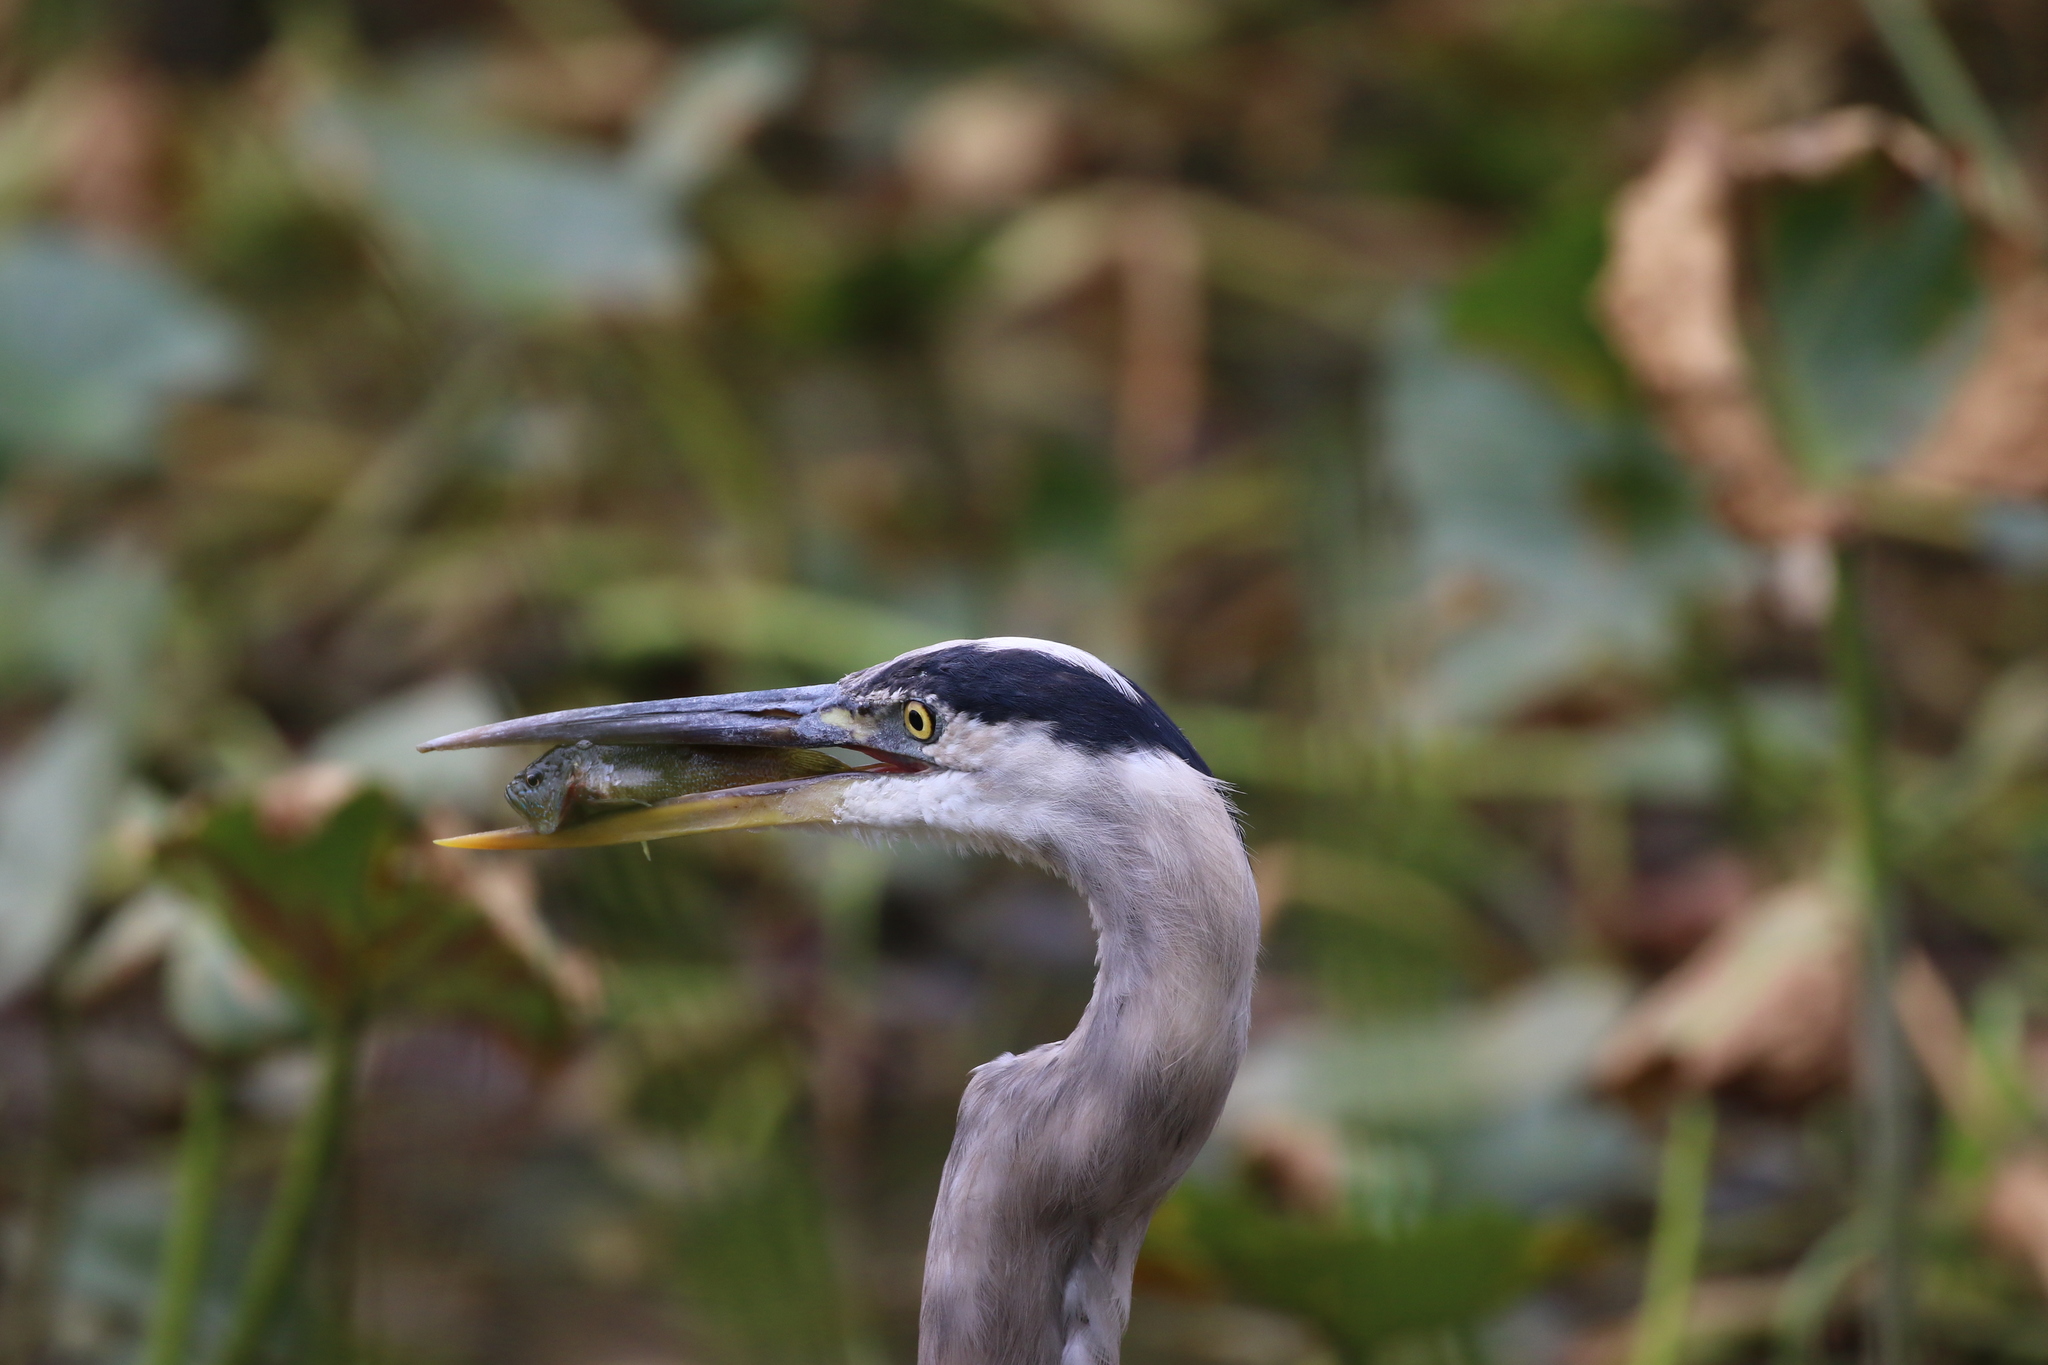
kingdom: Animalia
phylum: Chordata
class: Aves
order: Pelecaniformes
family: Ardeidae
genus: Ardea
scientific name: Ardea herodias
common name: Great blue heron
